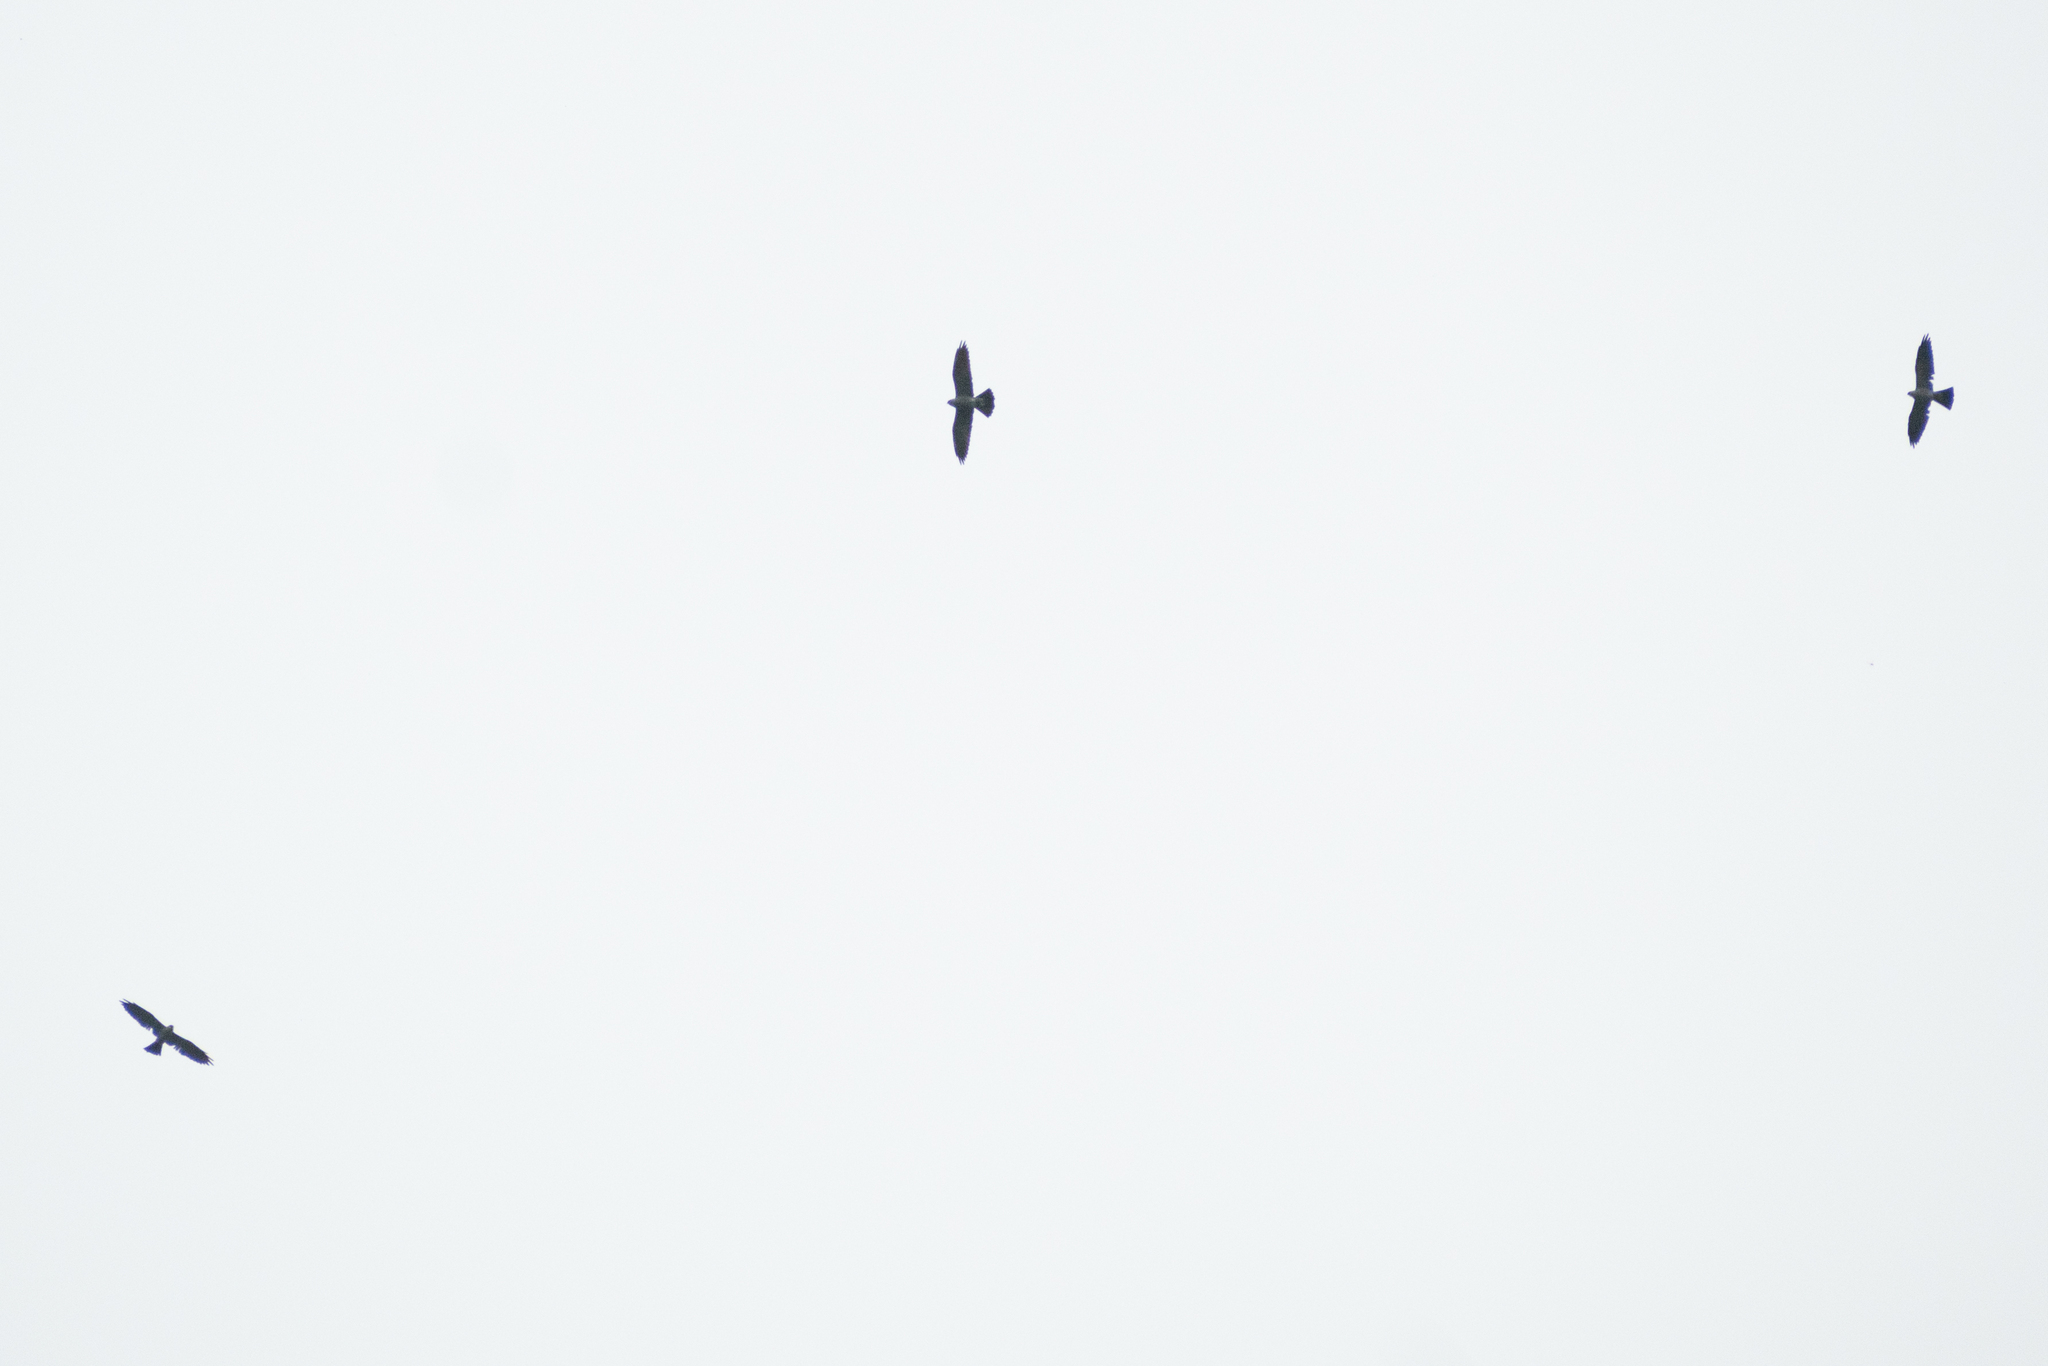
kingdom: Animalia
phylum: Chordata
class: Aves
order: Accipitriformes
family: Accipitridae
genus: Ictinia
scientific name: Ictinia mississippiensis
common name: Mississippi kite
